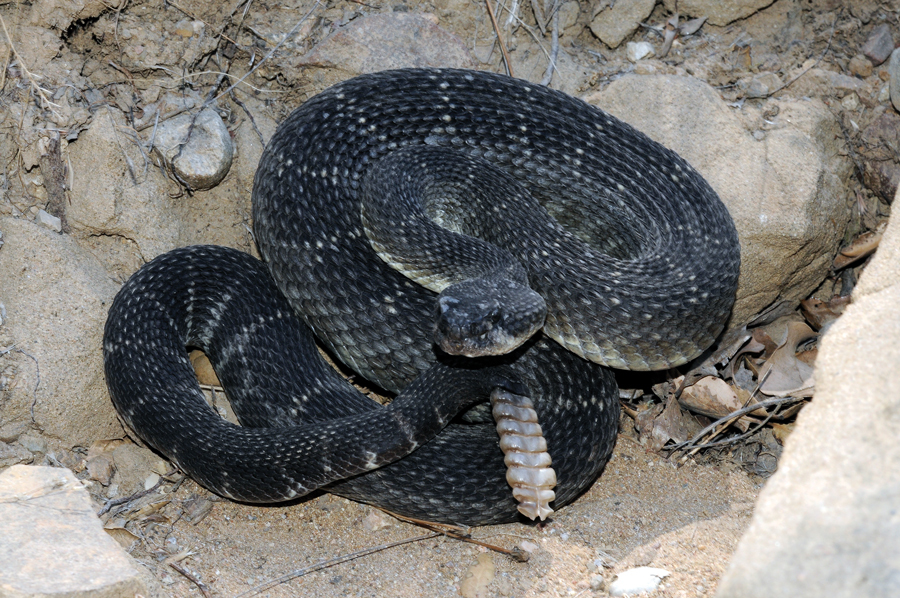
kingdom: Animalia
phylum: Chordata
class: Squamata
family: Viperidae
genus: Crotalus
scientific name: Crotalus oreganus
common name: Abyssus
